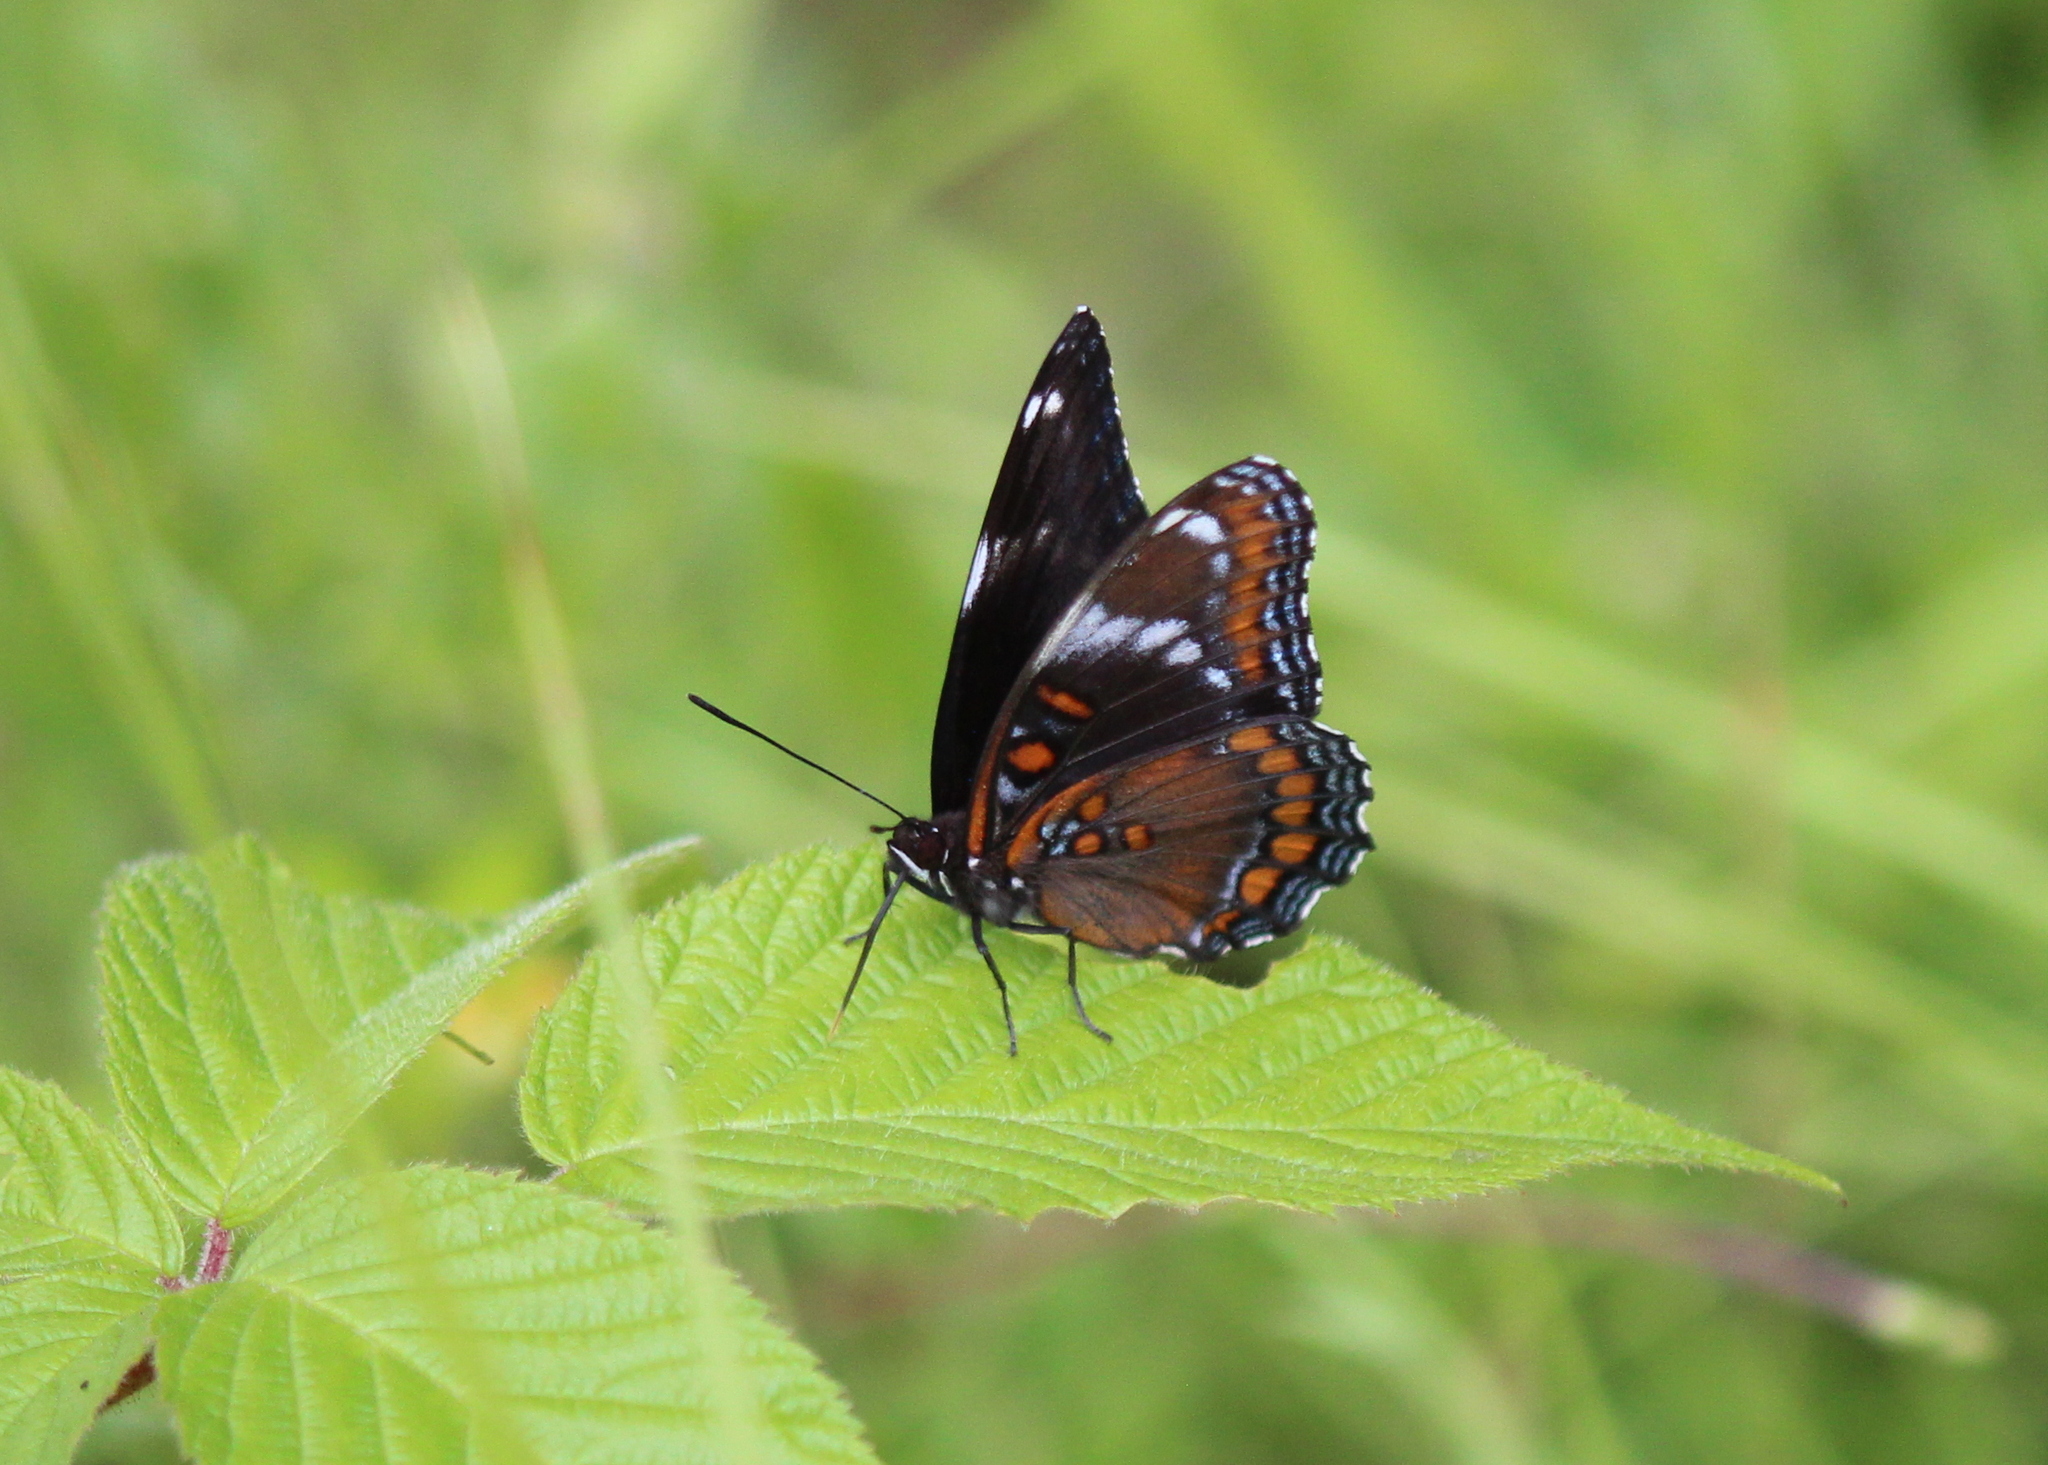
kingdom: Animalia
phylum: Arthropoda
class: Insecta
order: Lepidoptera
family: Nymphalidae
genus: Limenitis
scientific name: Limenitis
